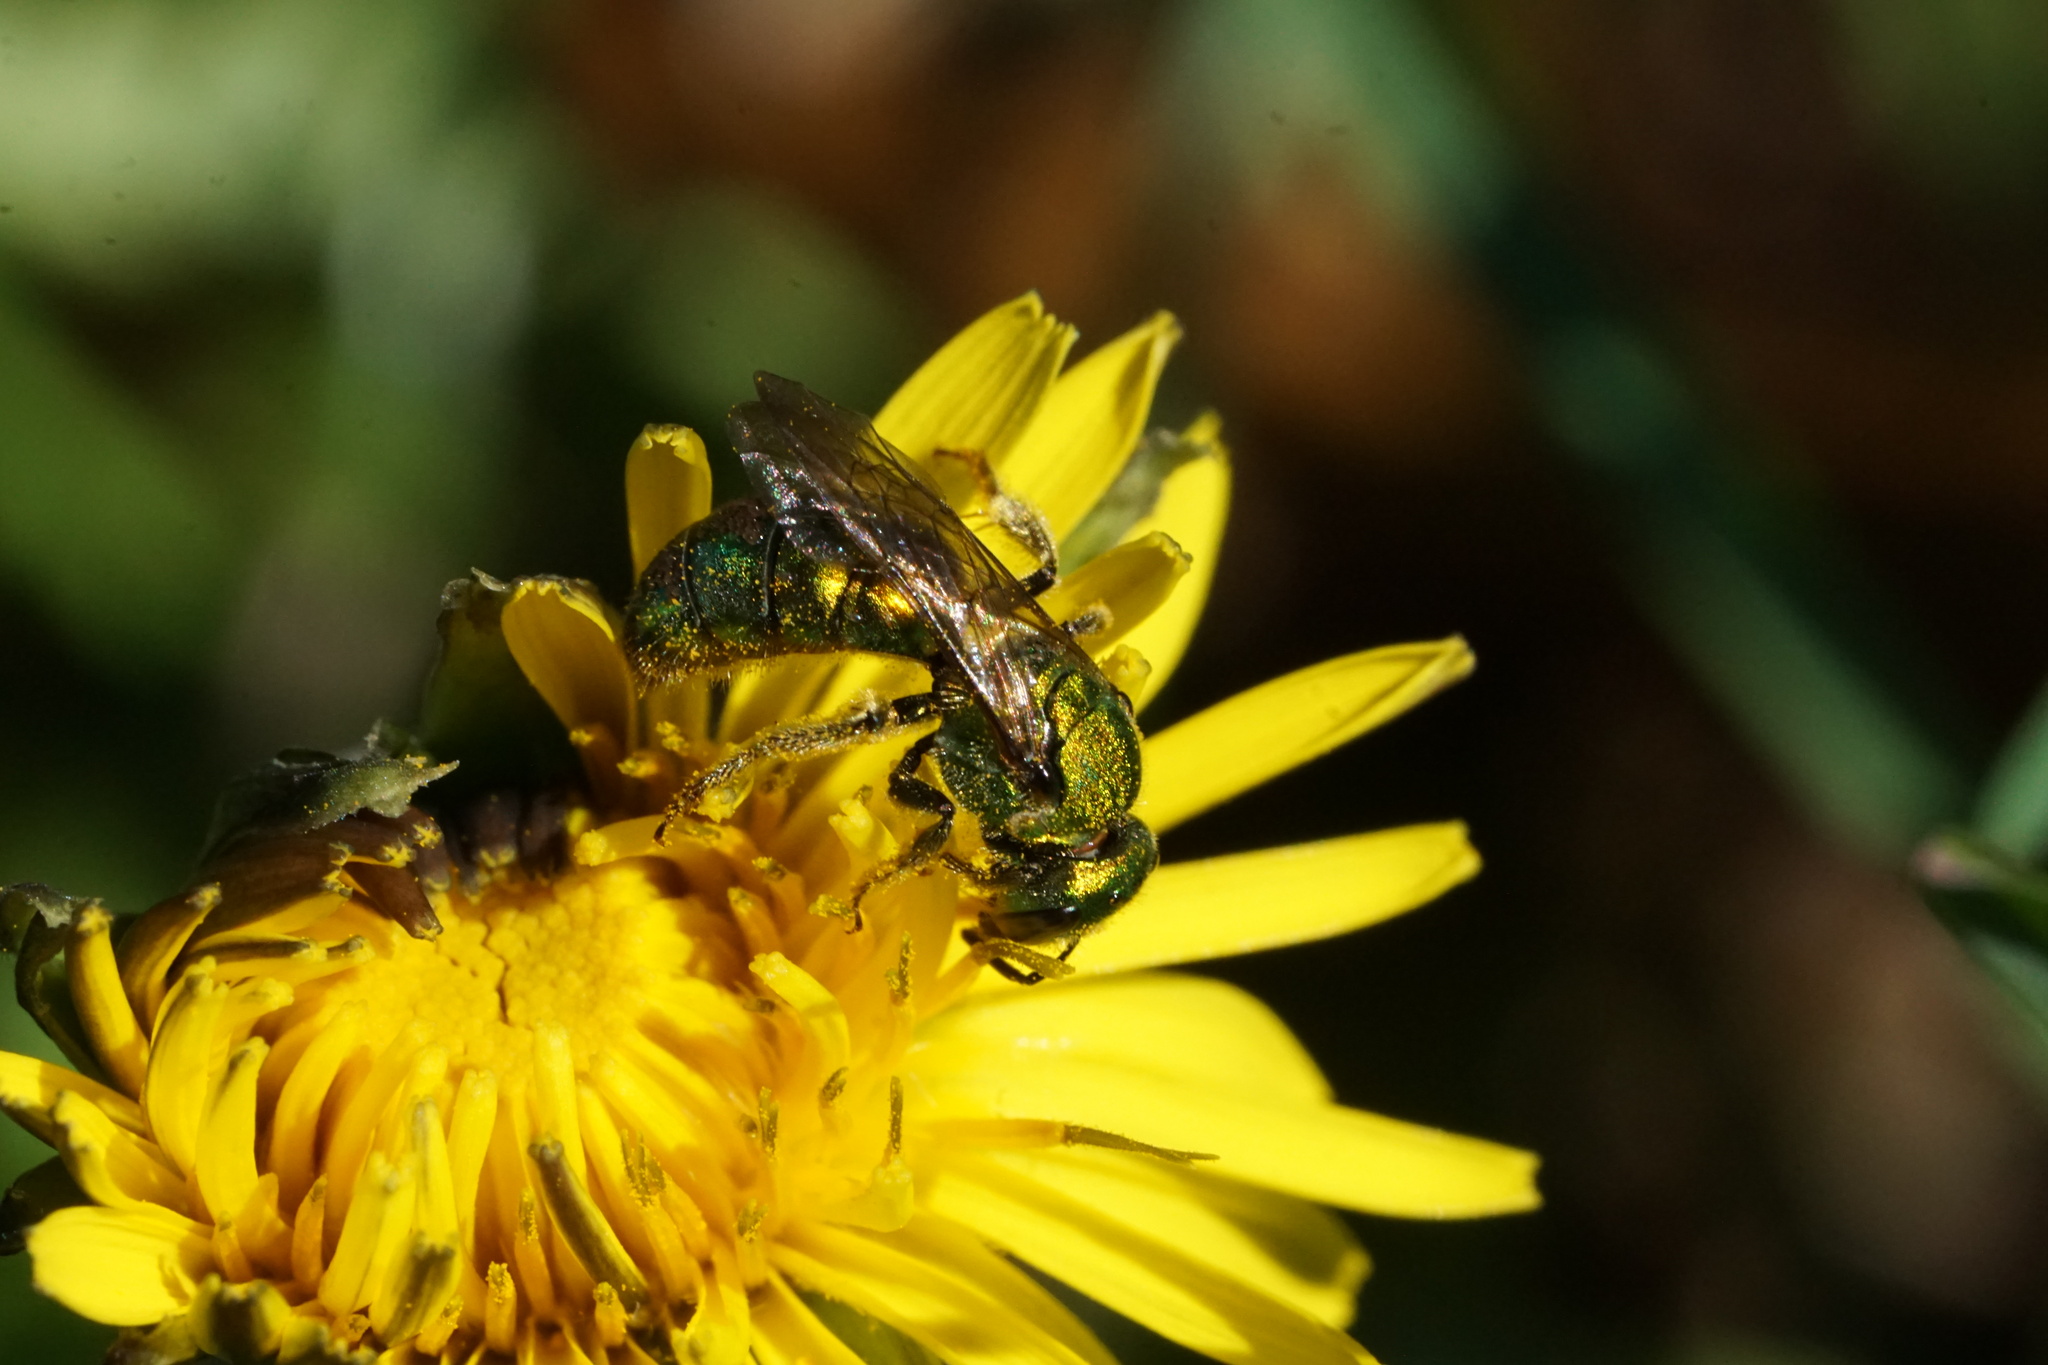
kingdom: Animalia
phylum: Arthropoda
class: Insecta
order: Hymenoptera
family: Halictidae
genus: Augochlora
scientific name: Augochlora pura
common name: Pure green sweat bee
